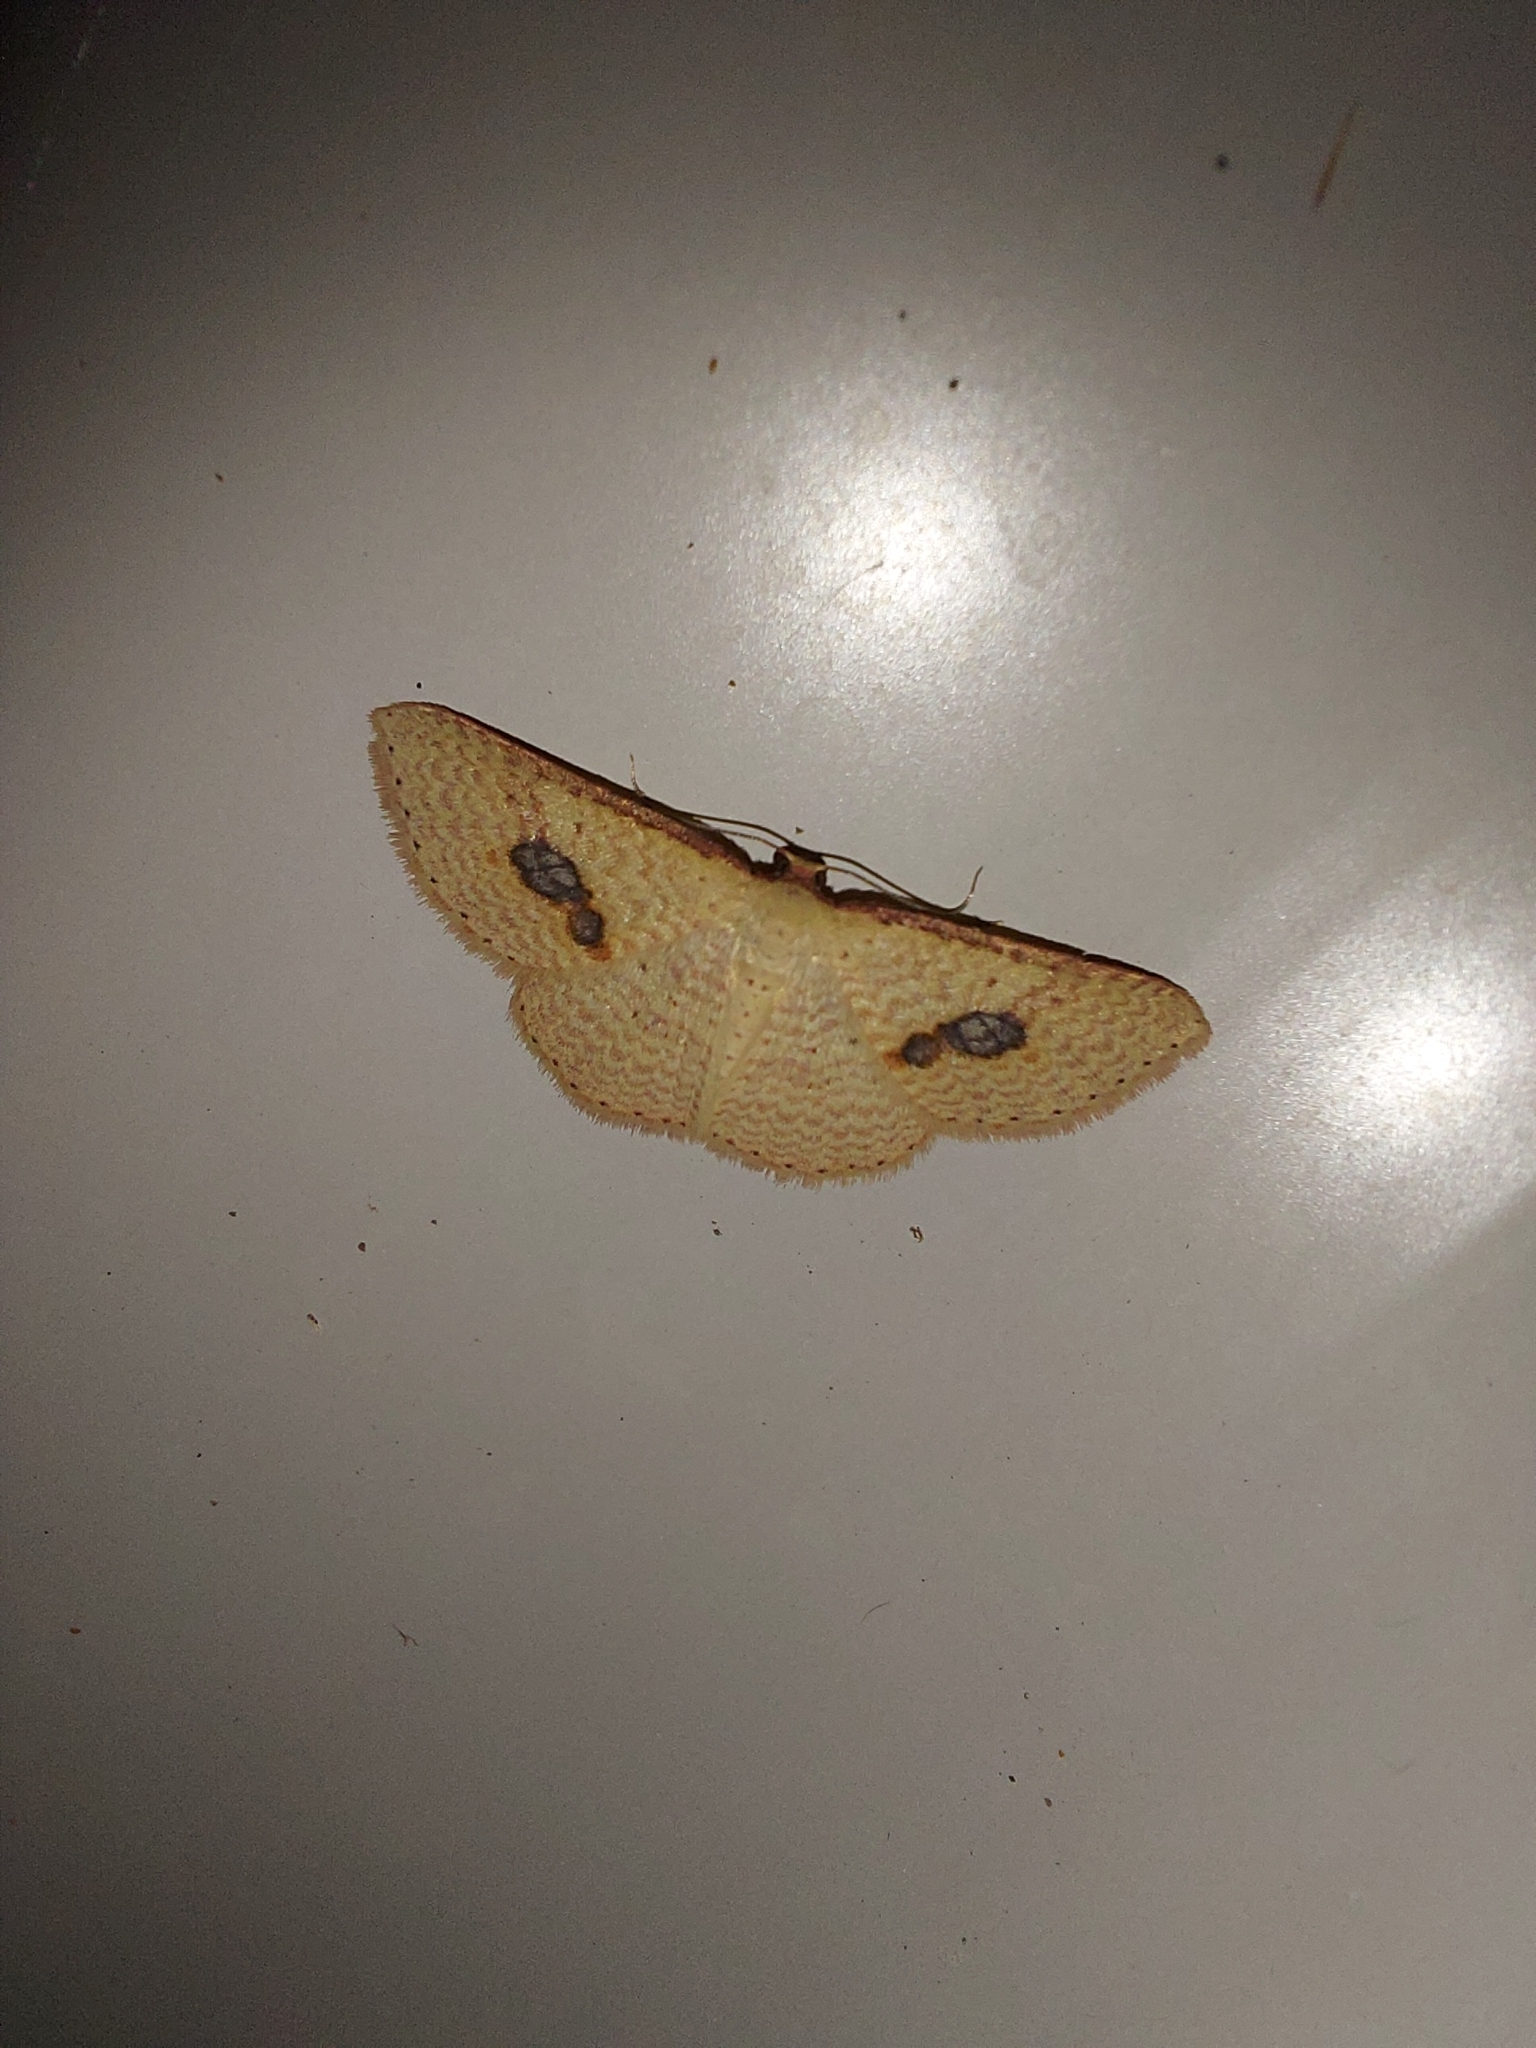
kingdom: Animalia
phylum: Arthropoda
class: Insecta
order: Lepidoptera
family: Geometridae
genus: Epicyme
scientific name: Epicyme rubropunctaria
